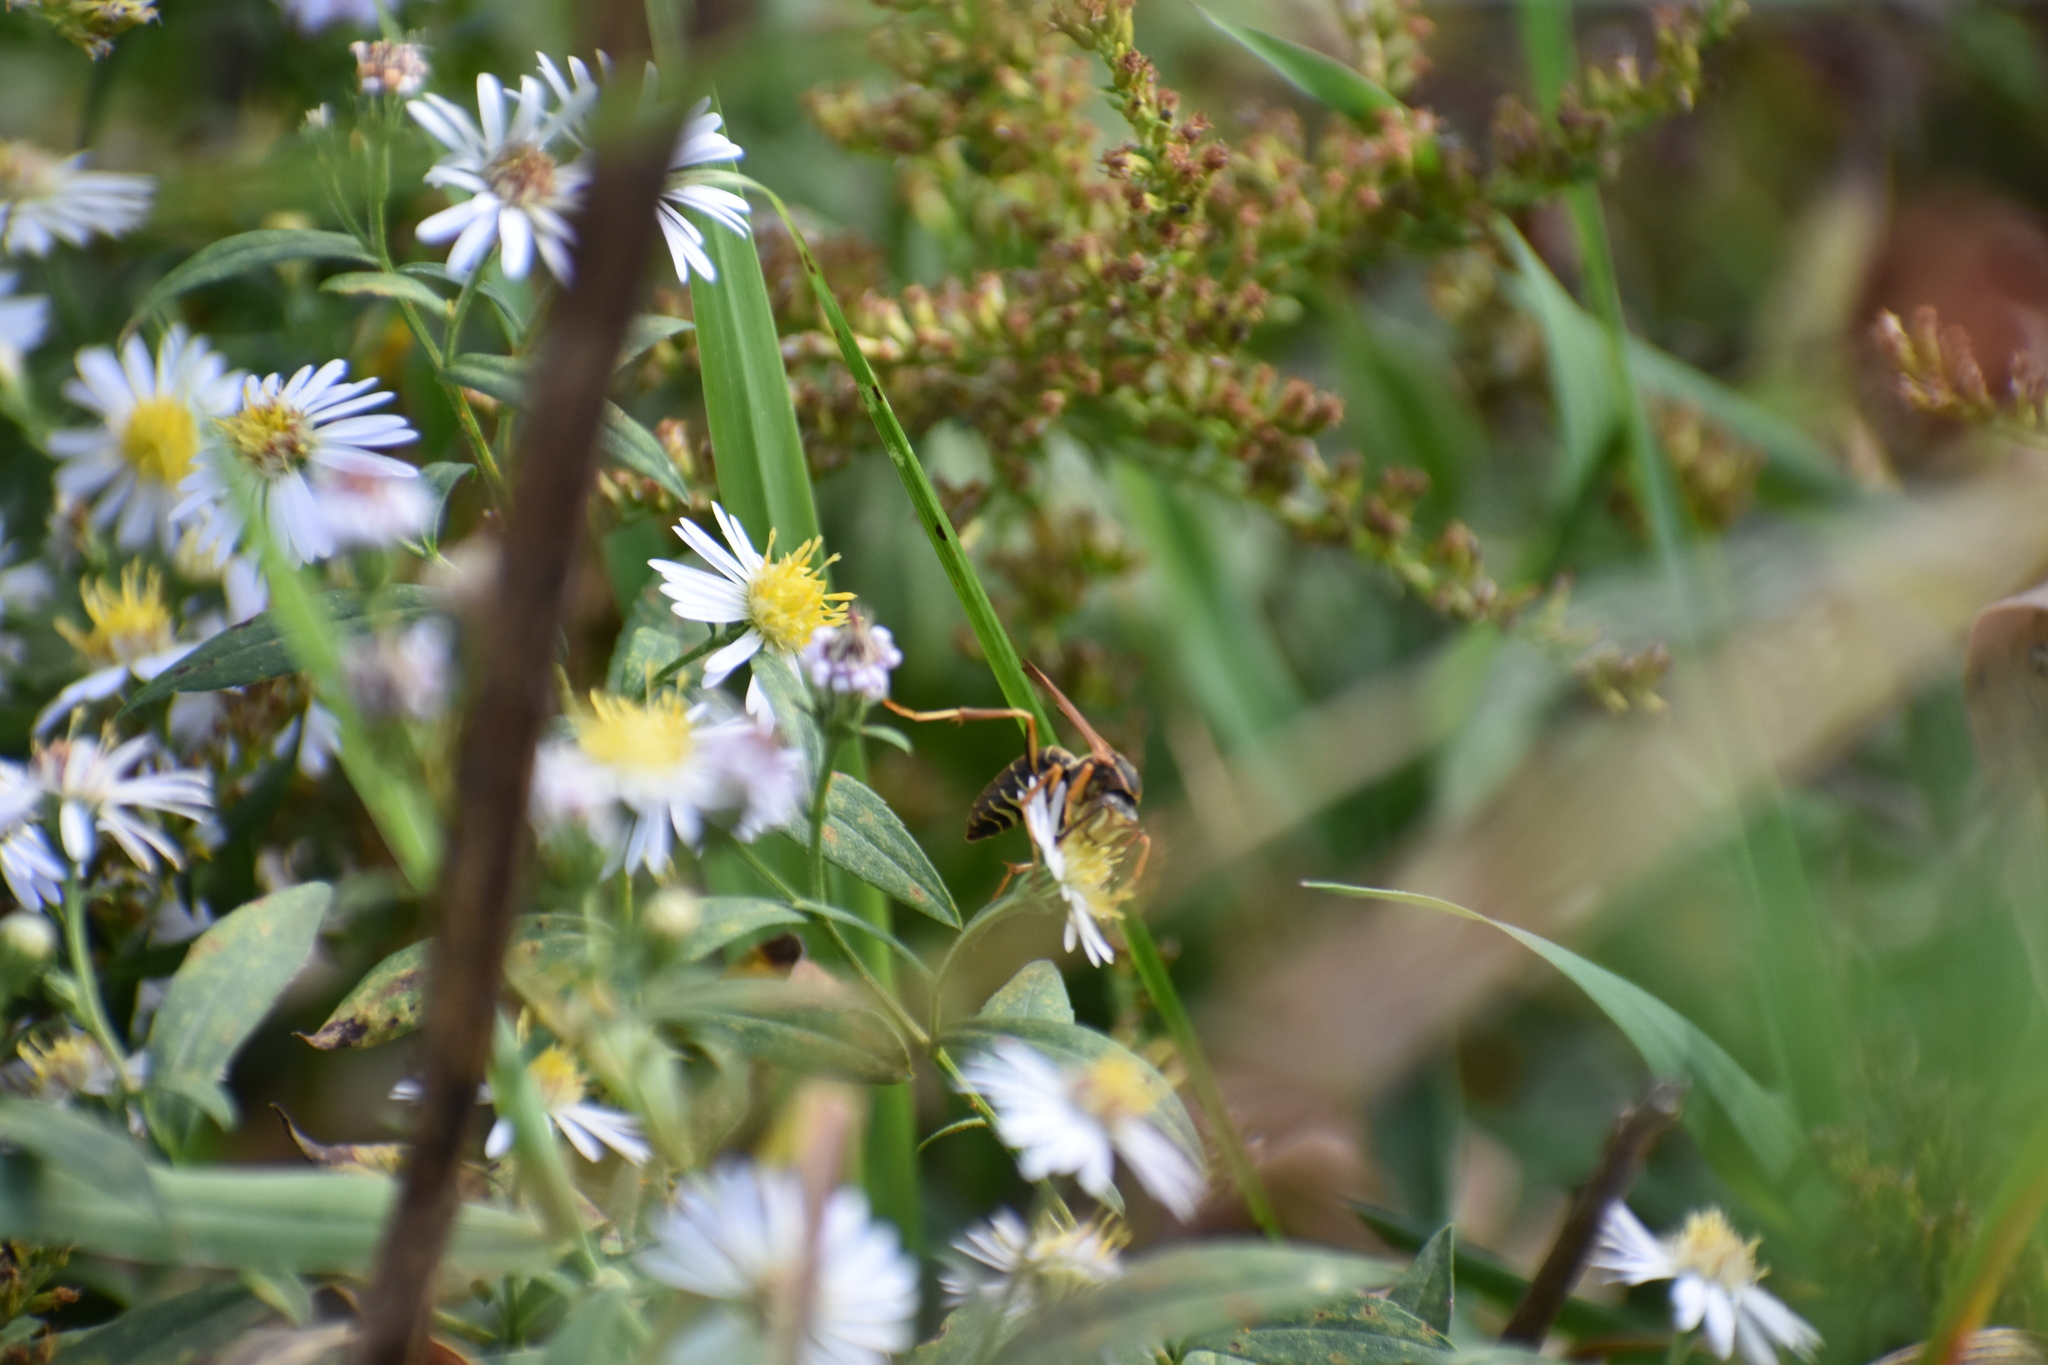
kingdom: Animalia
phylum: Arthropoda
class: Insecta
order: Hymenoptera
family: Eumenidae
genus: Polistes
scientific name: Polistes fuscatus
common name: Dark paper wasp
